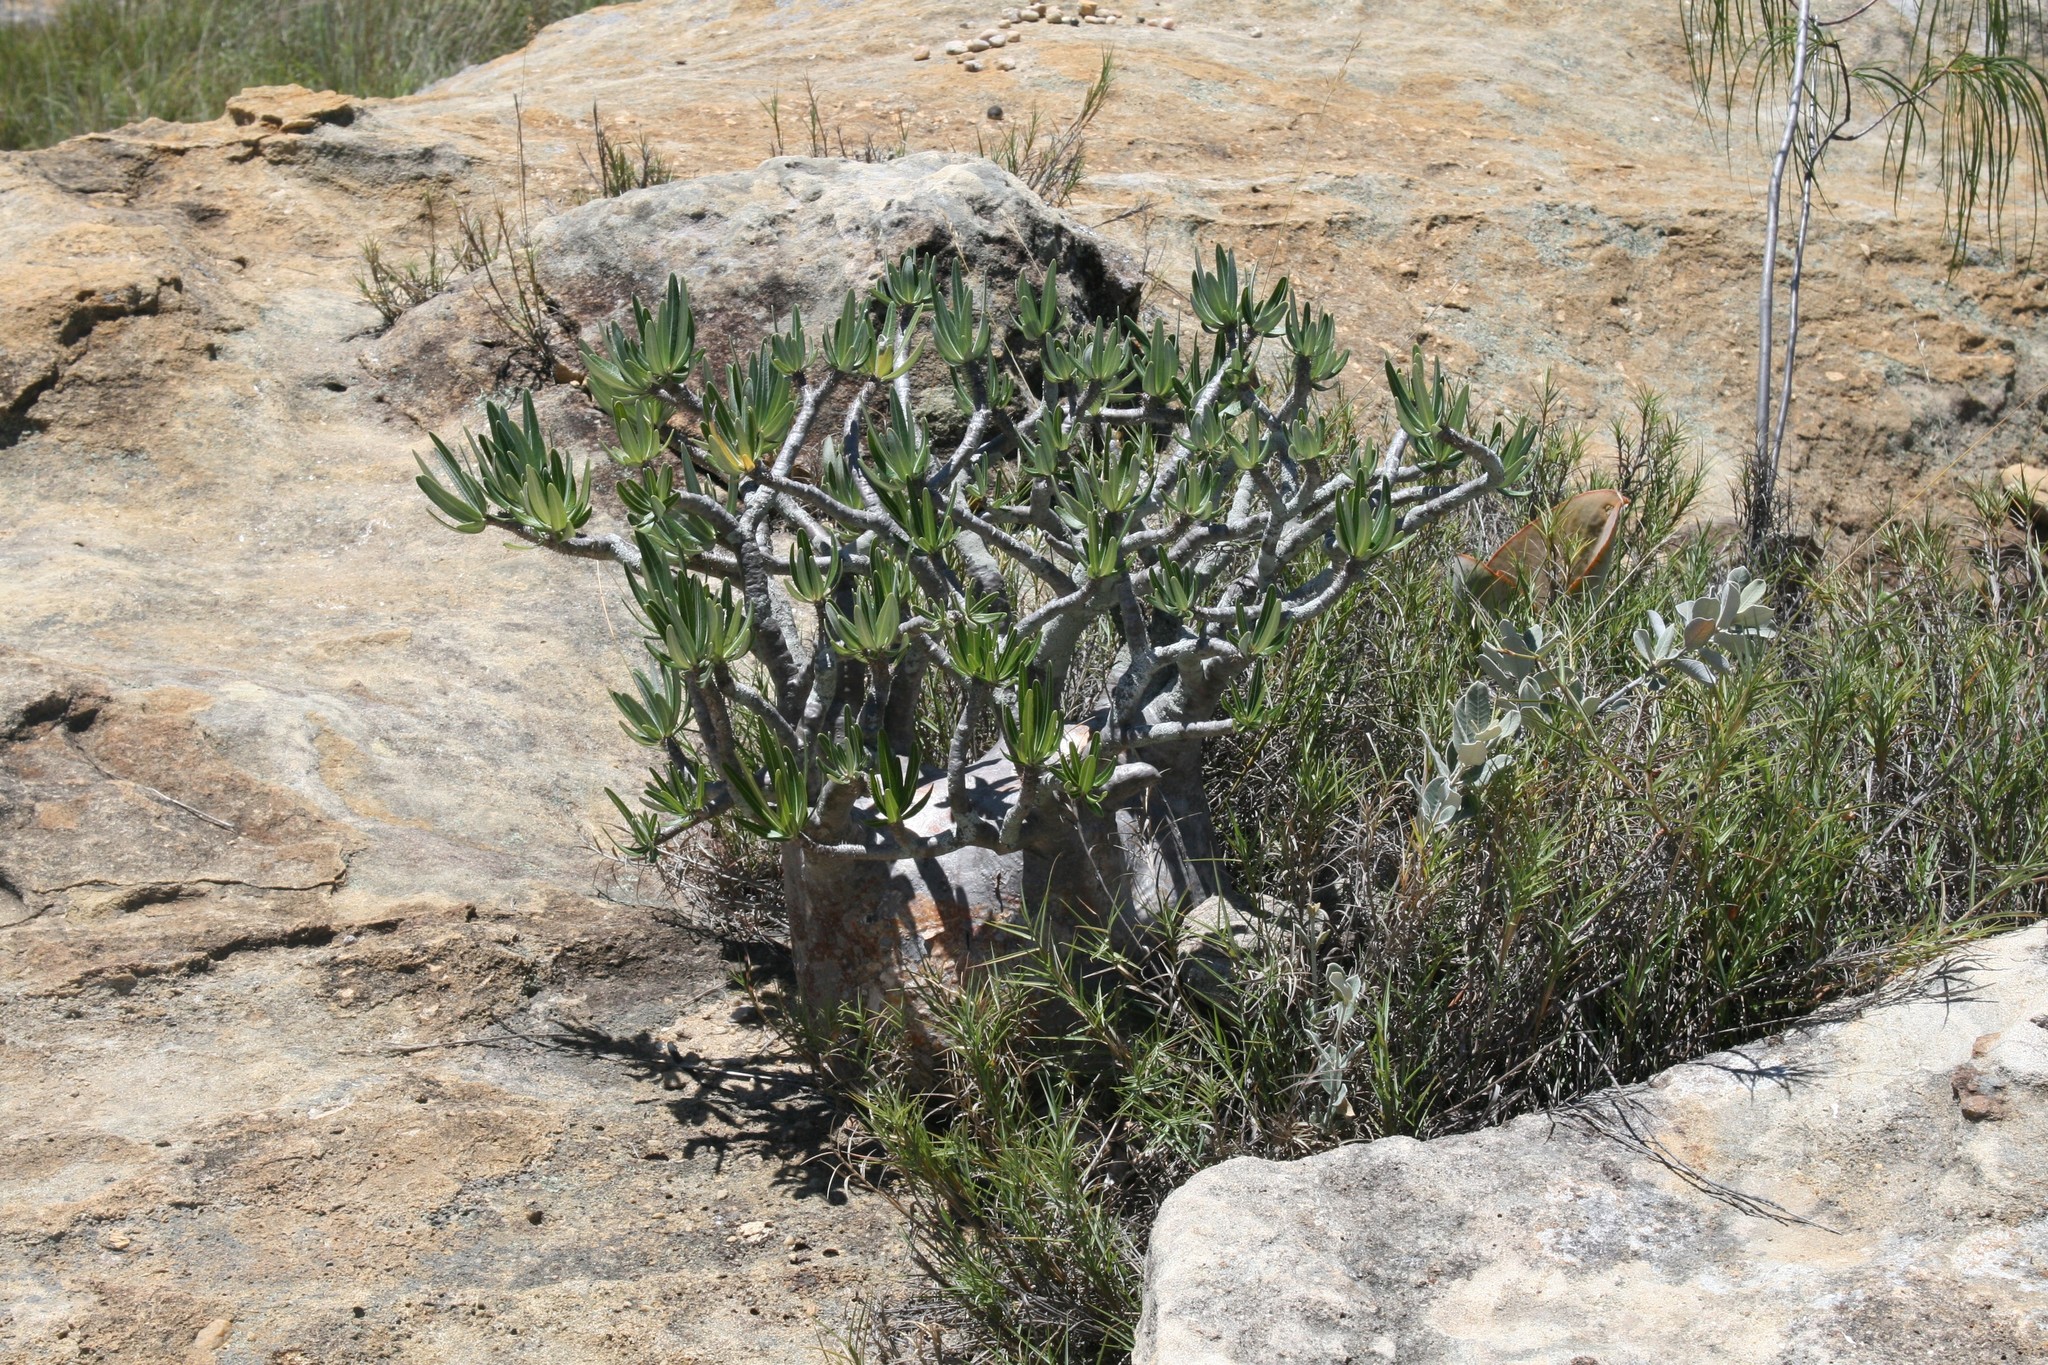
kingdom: Plantae
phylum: Tracheophyta
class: Magnoliopsida
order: Gentianales
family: Apocynaceae
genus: Pachypodium
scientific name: Pachypodium gracilius
